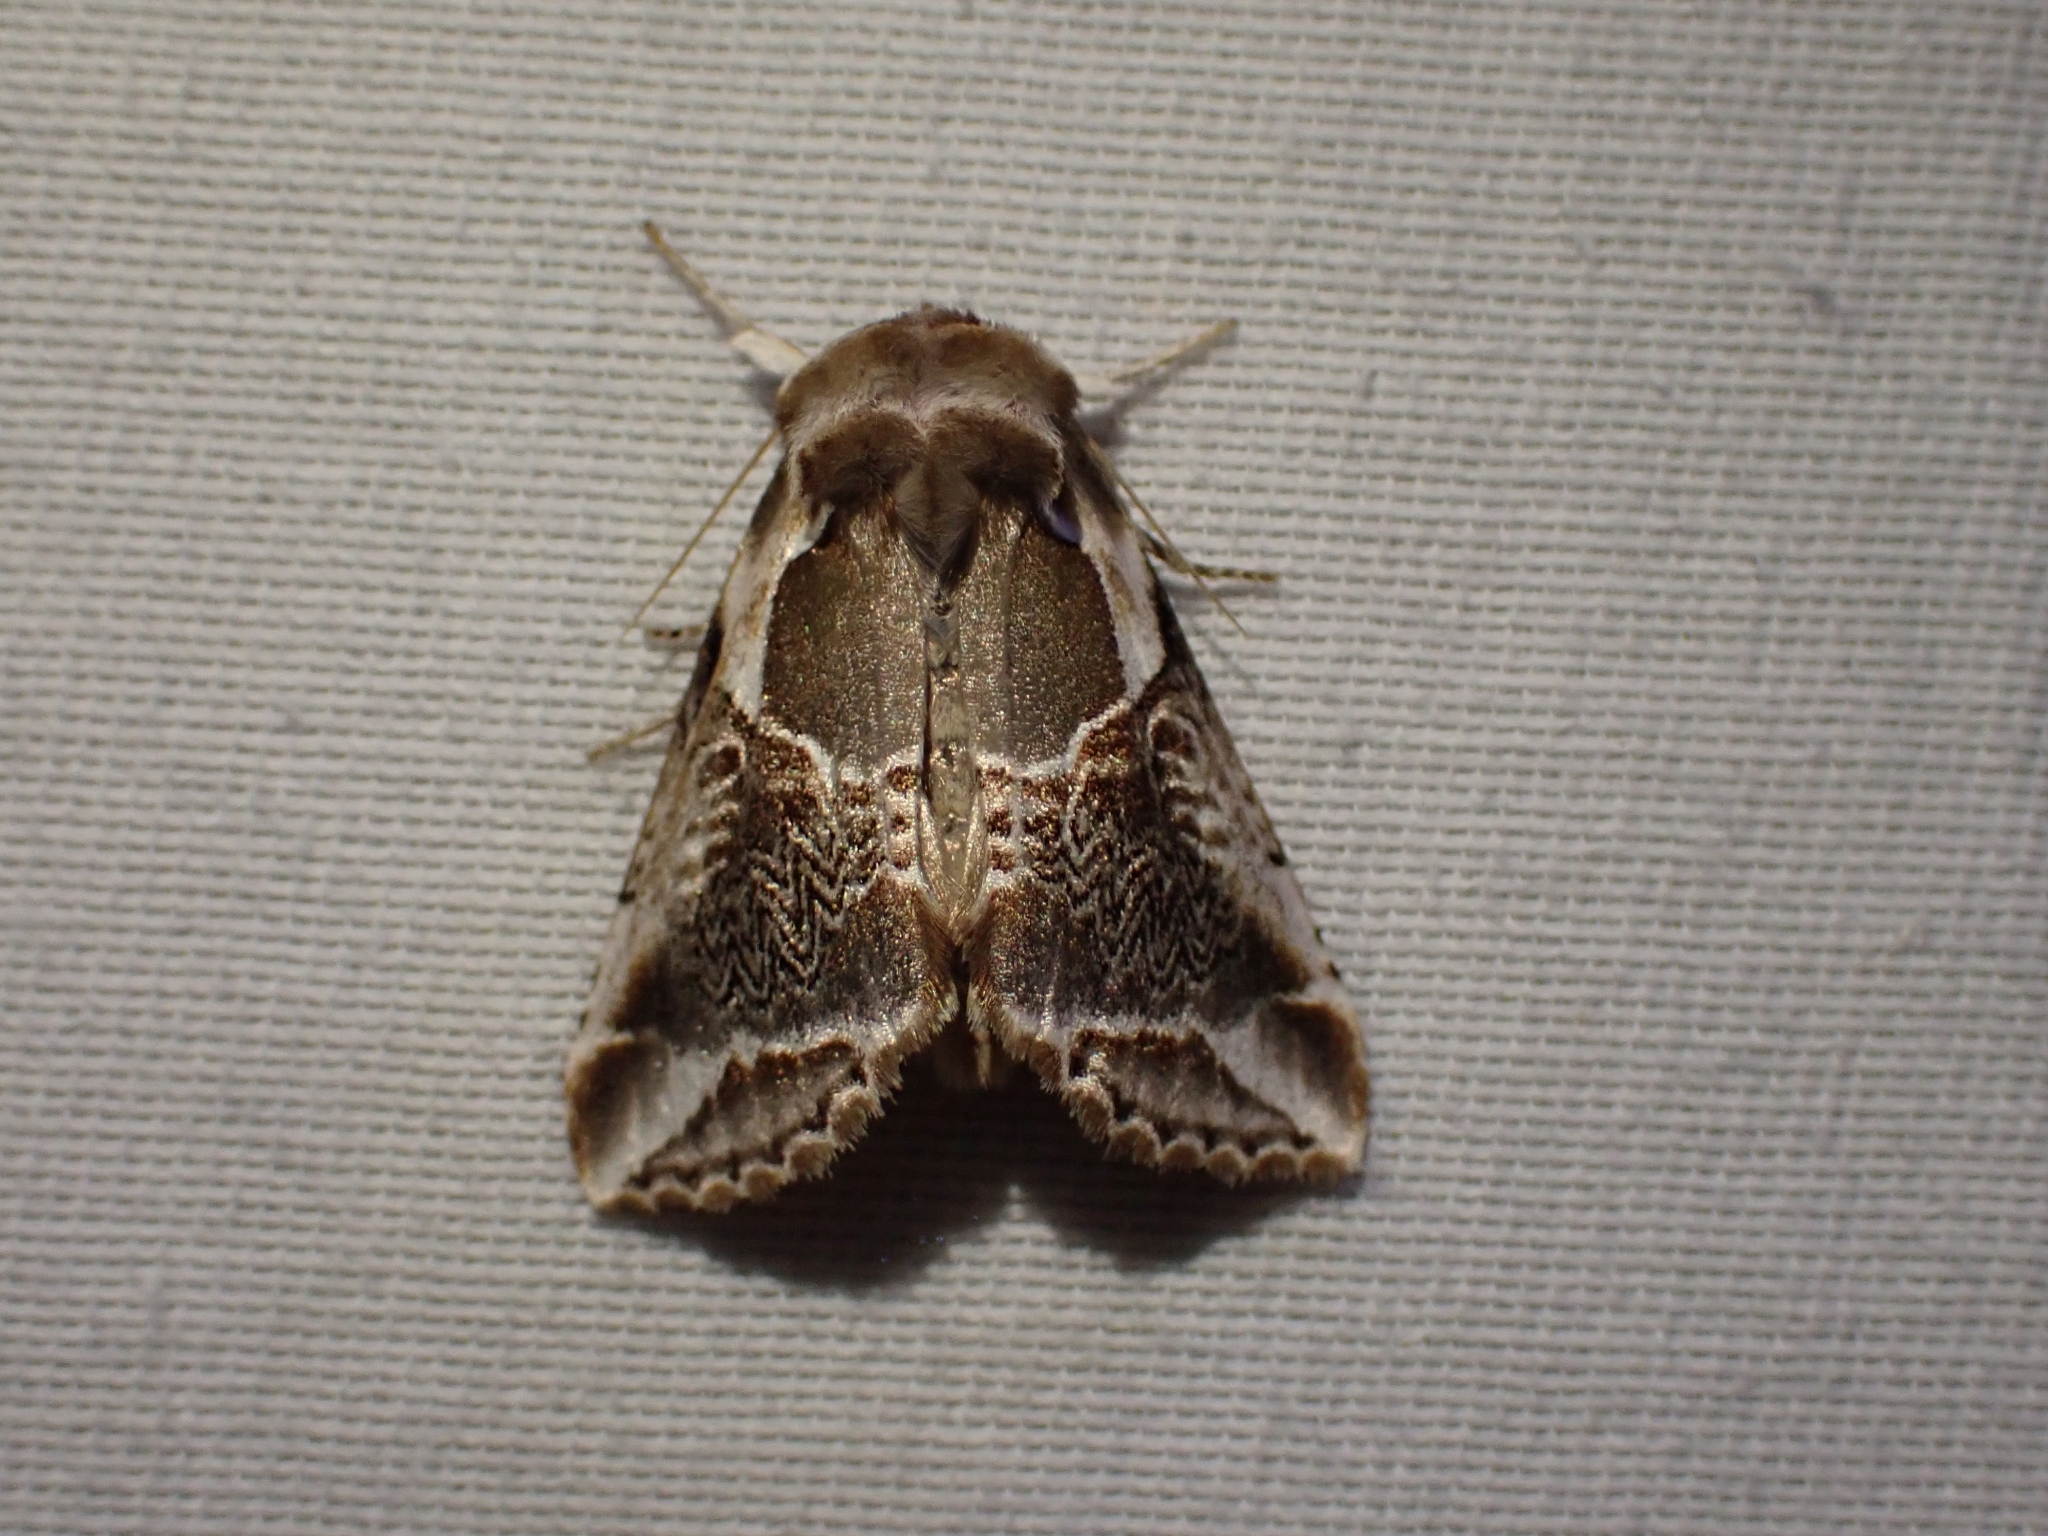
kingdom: Animalia
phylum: Arthropoda
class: Insecta
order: Lepidoptera
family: Drepanidae
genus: Habrosyne
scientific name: Habrosyne scripta
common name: Lettered habrosyne moth
